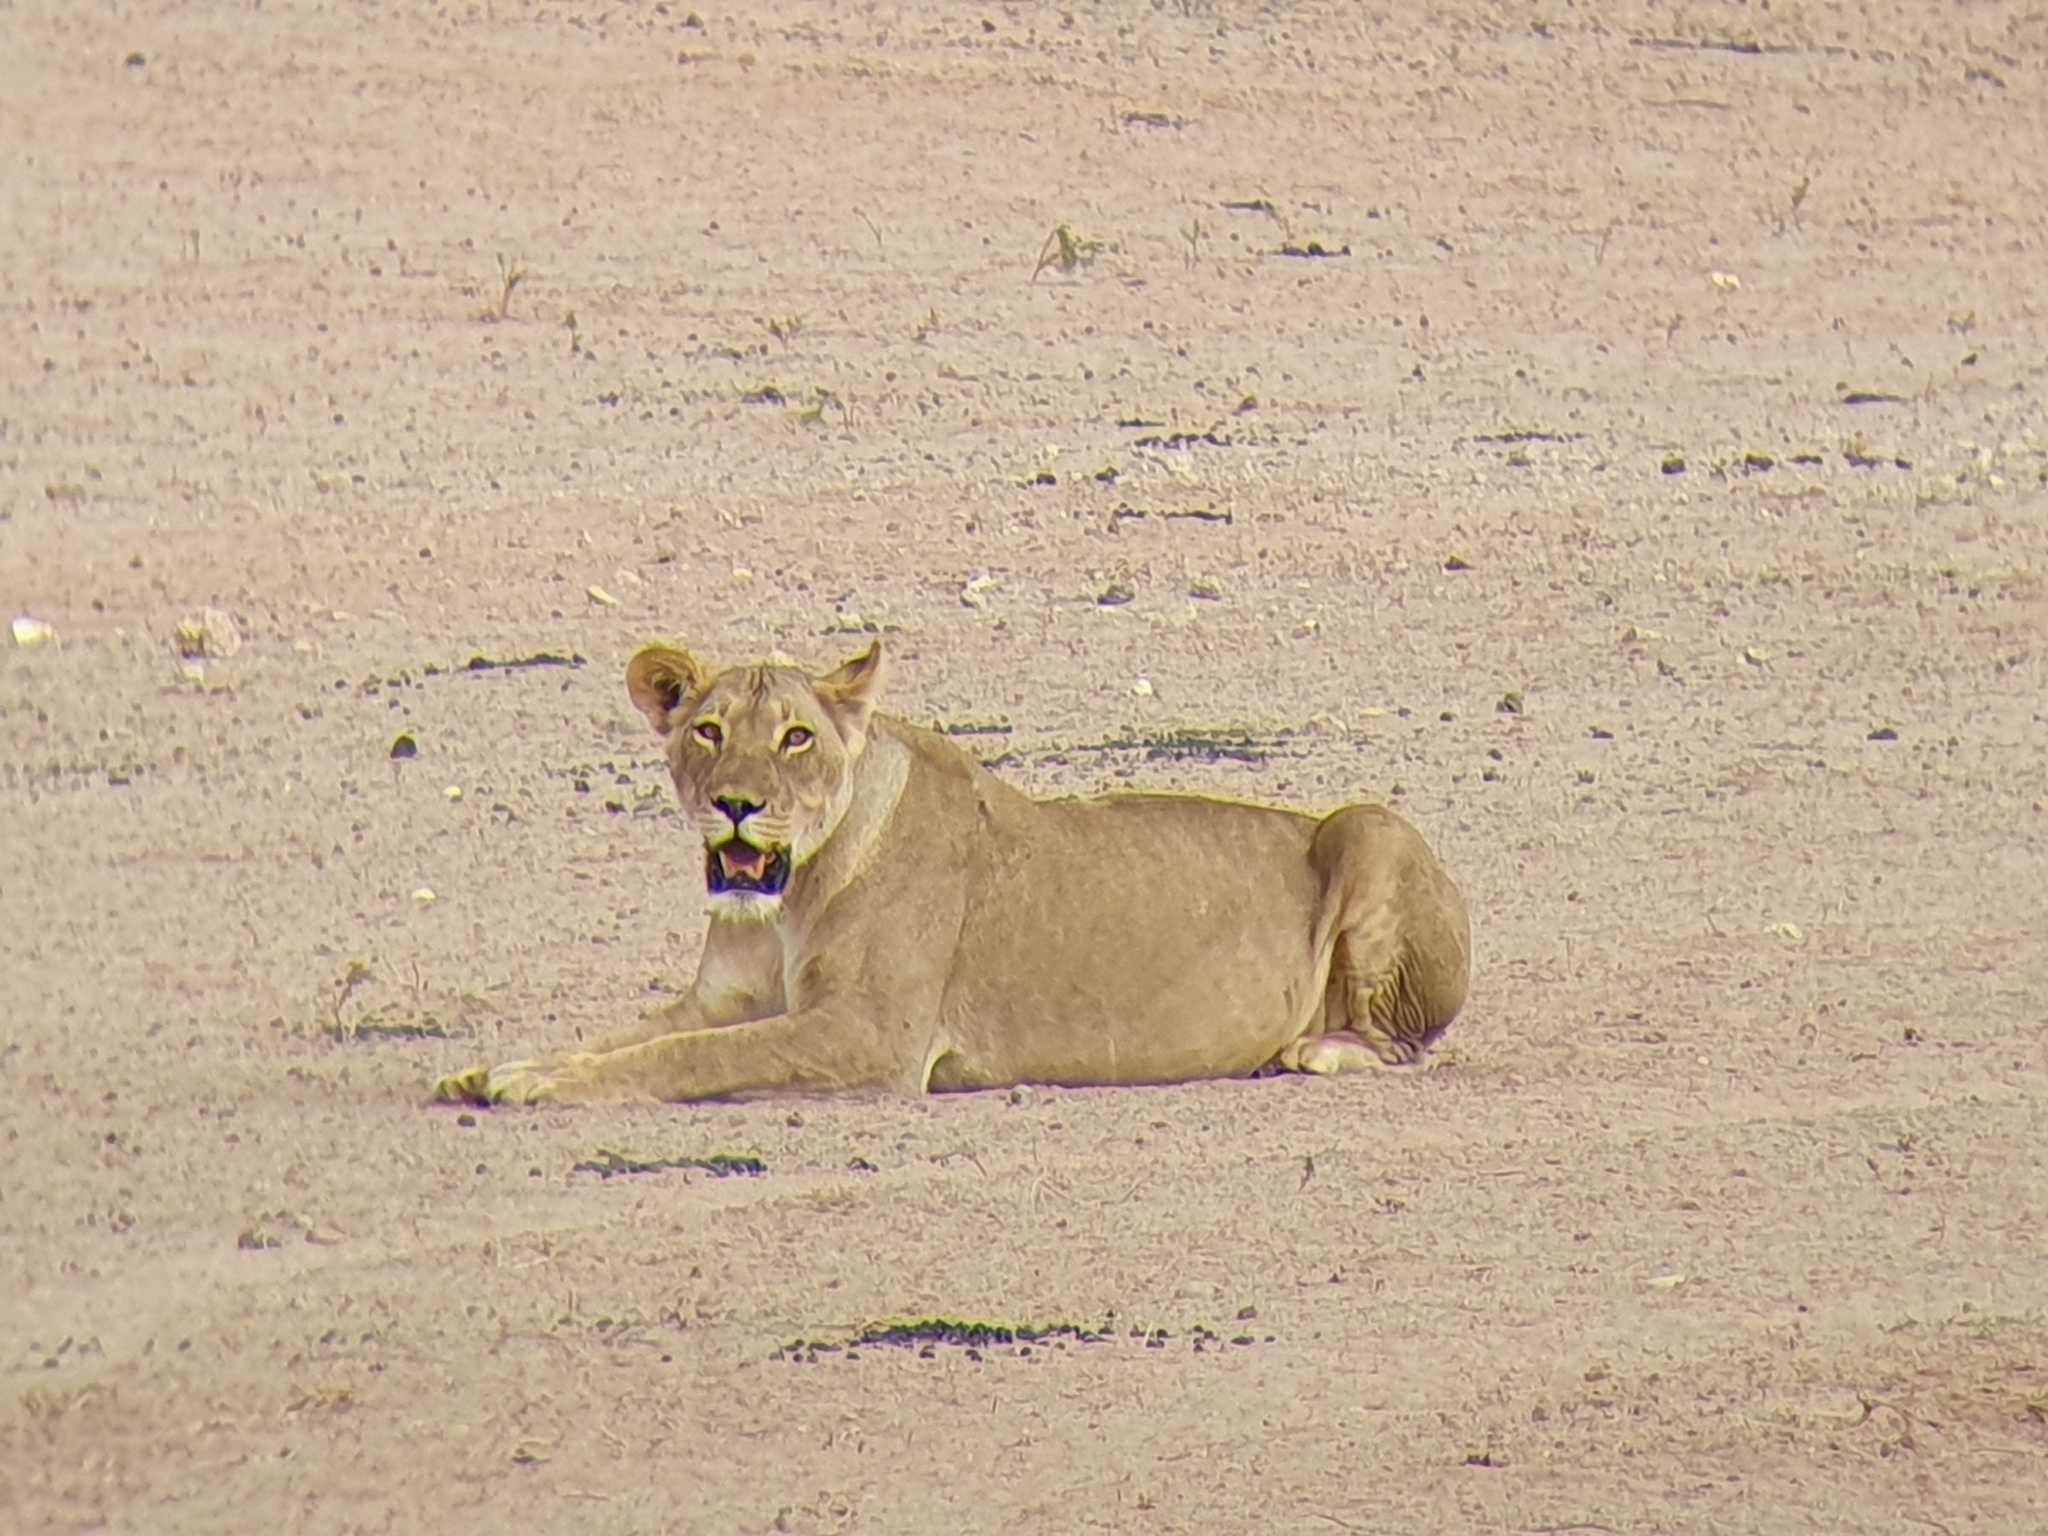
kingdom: Animalia
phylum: Chordata
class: Mammalia
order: Carnivora
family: Felidae
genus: Panthera
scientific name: Panthera leo
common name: Lion
